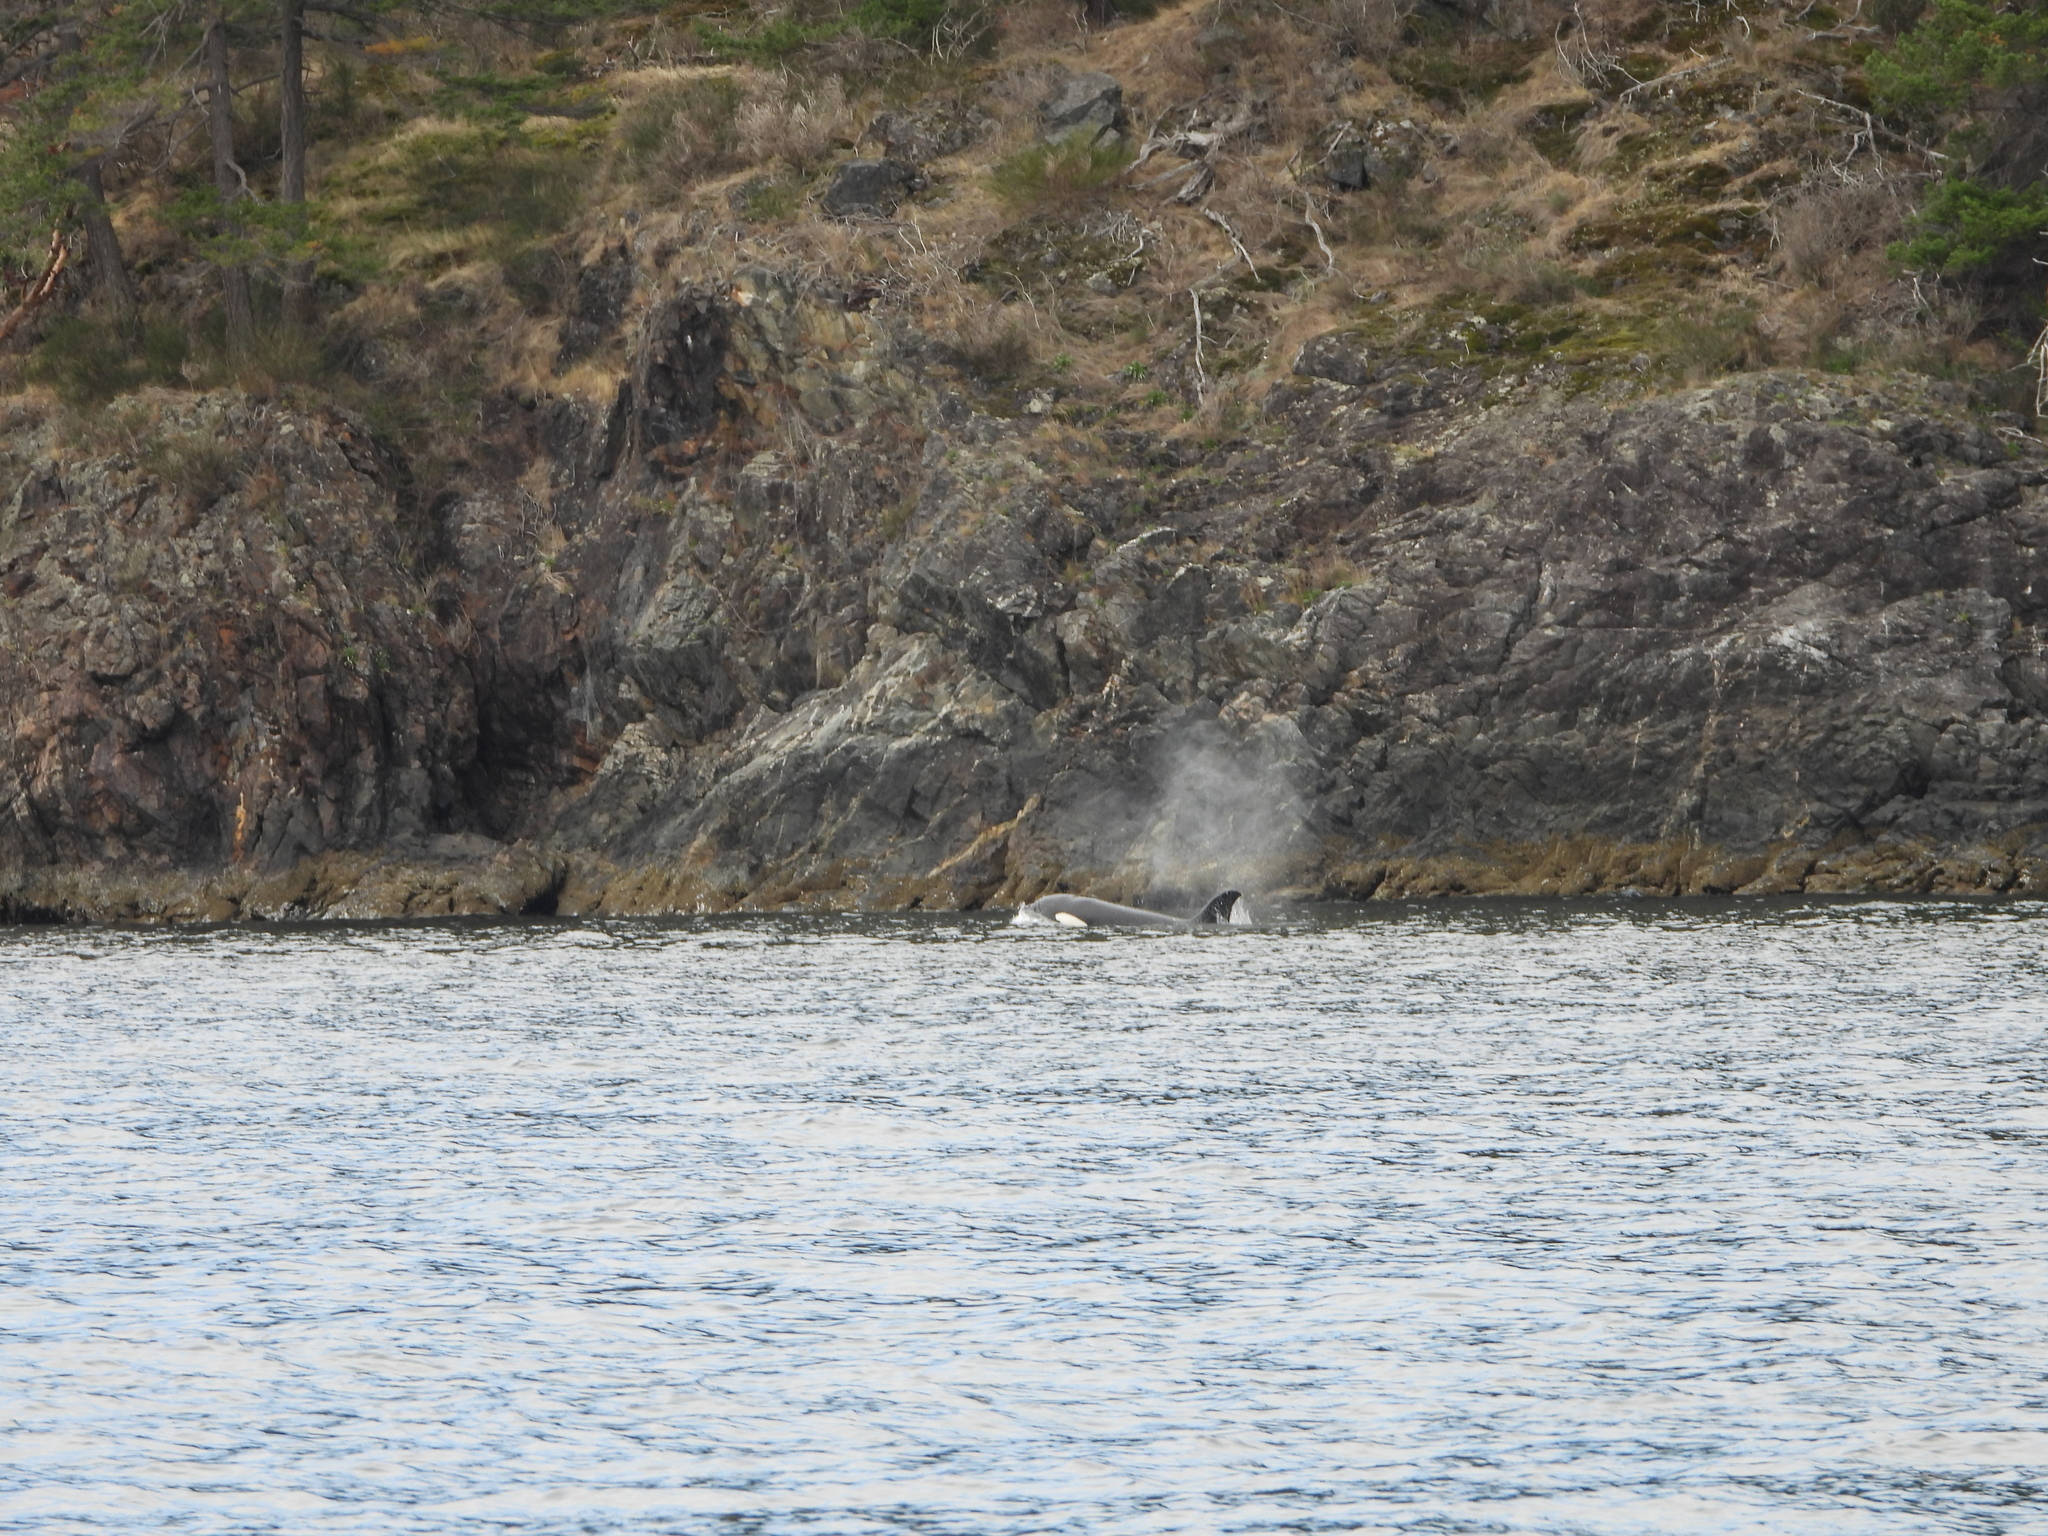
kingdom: Animalia
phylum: Chordata
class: Mammalia
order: Cetacea
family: Delphinidae
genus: Orcinus
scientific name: Orcinus orca
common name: Killer whale
